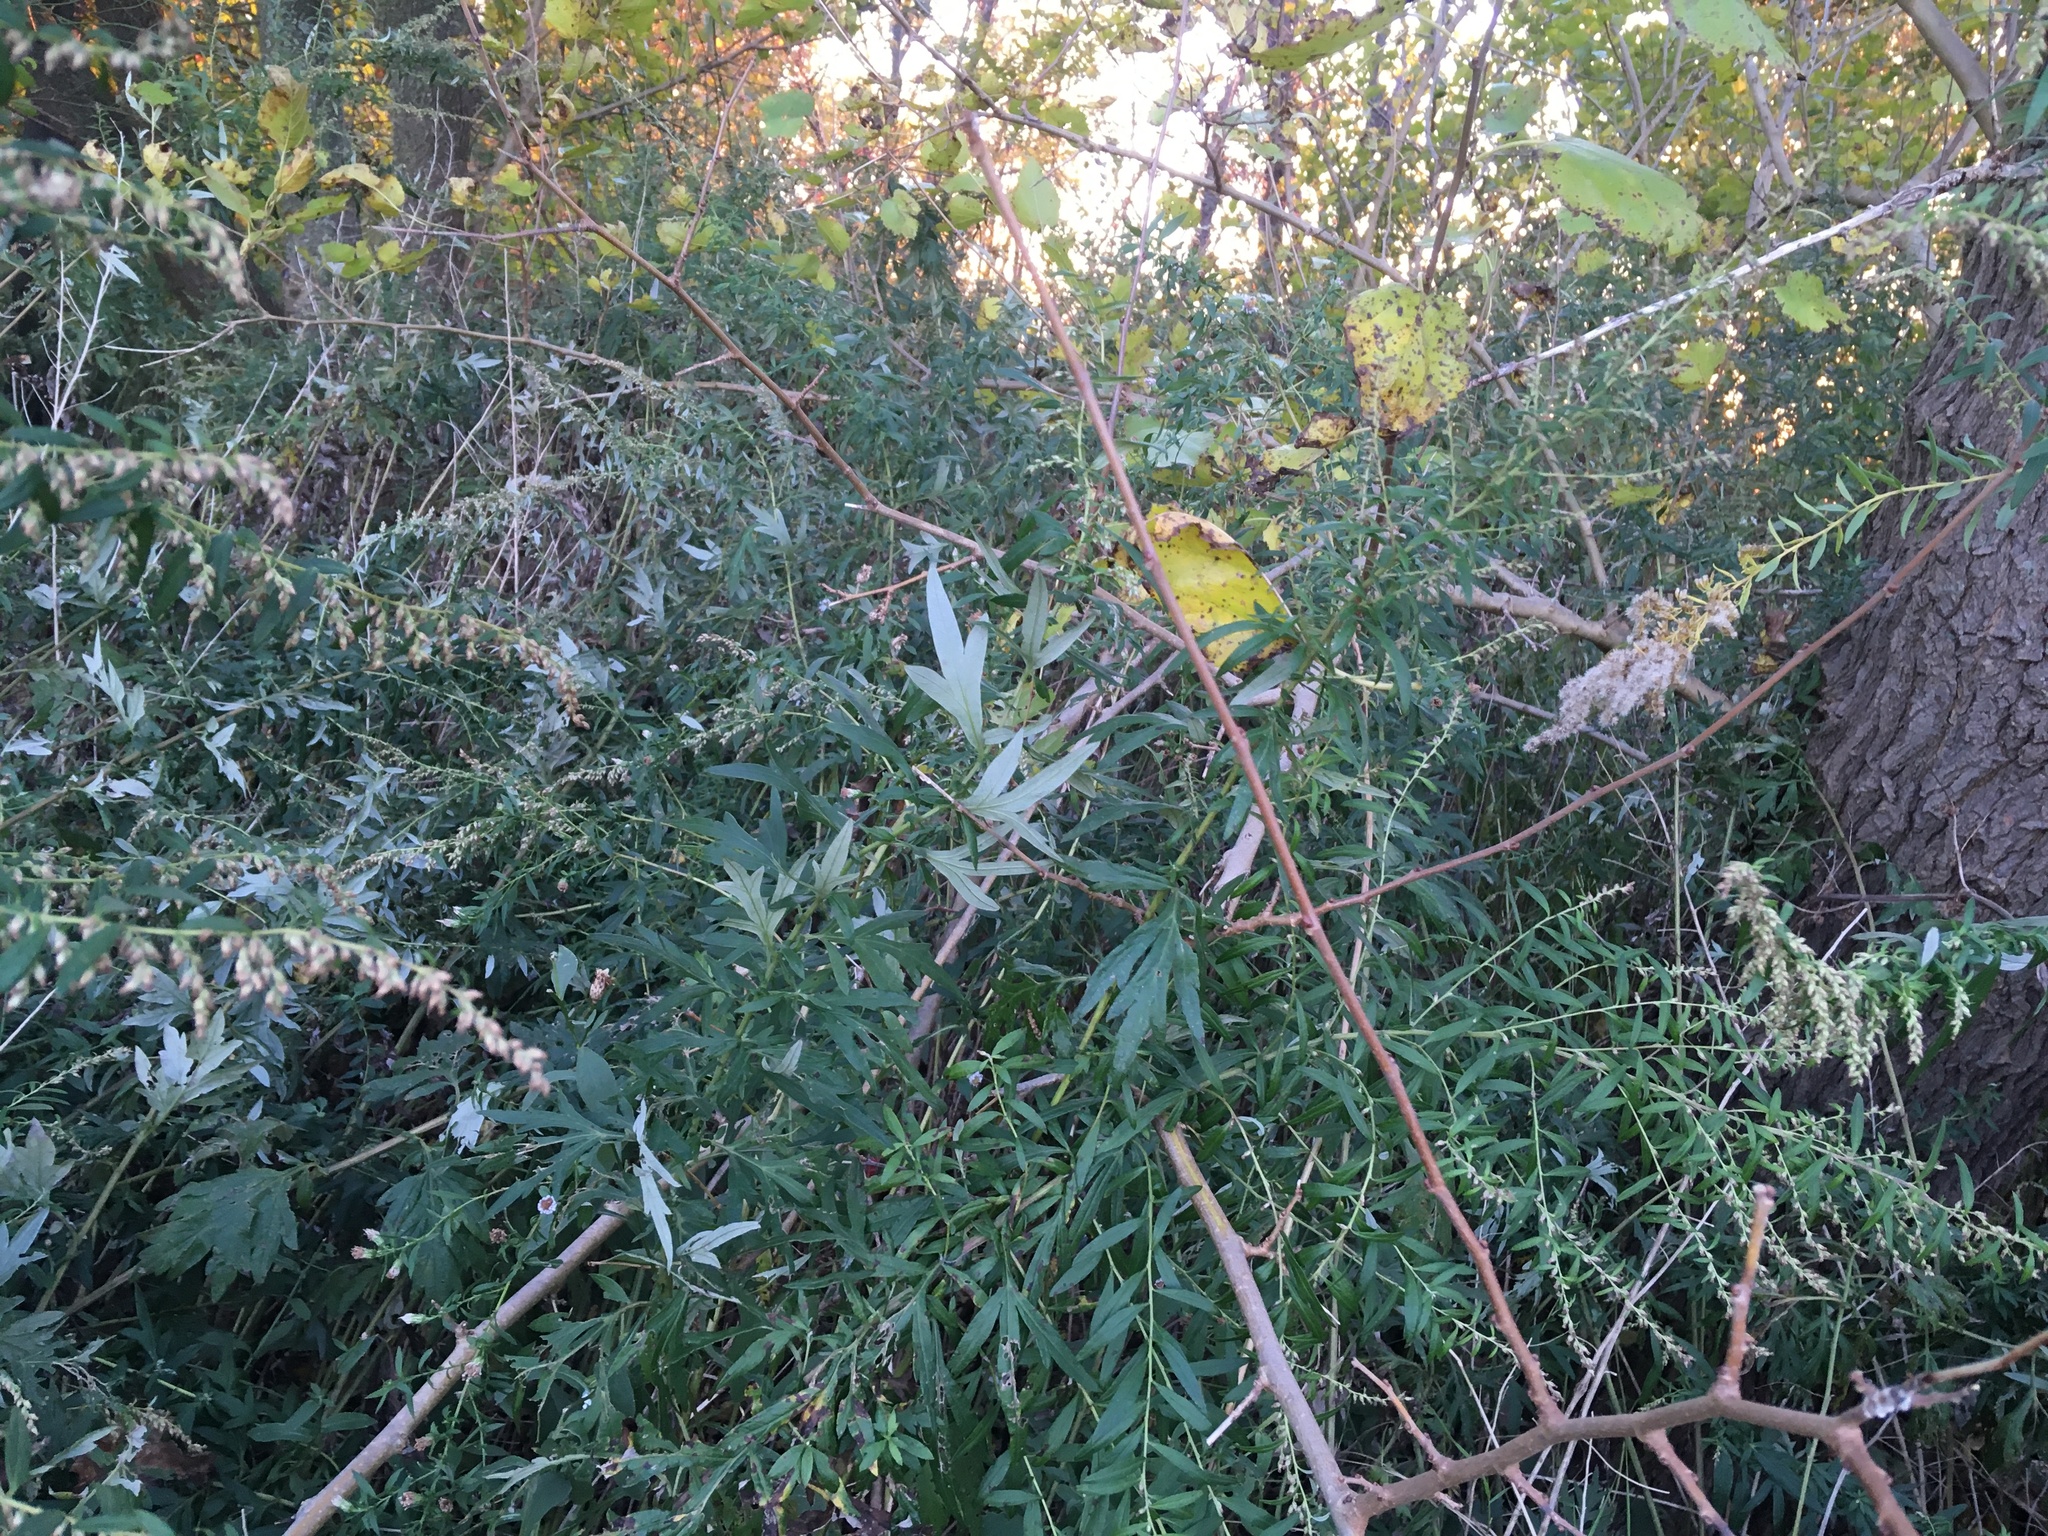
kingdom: Plantae
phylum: Tracheophyta
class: Magnoliopsida
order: Asterales
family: Asteraceae
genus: Artemisia
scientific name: Artemisia vulgaris
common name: Mugwort
